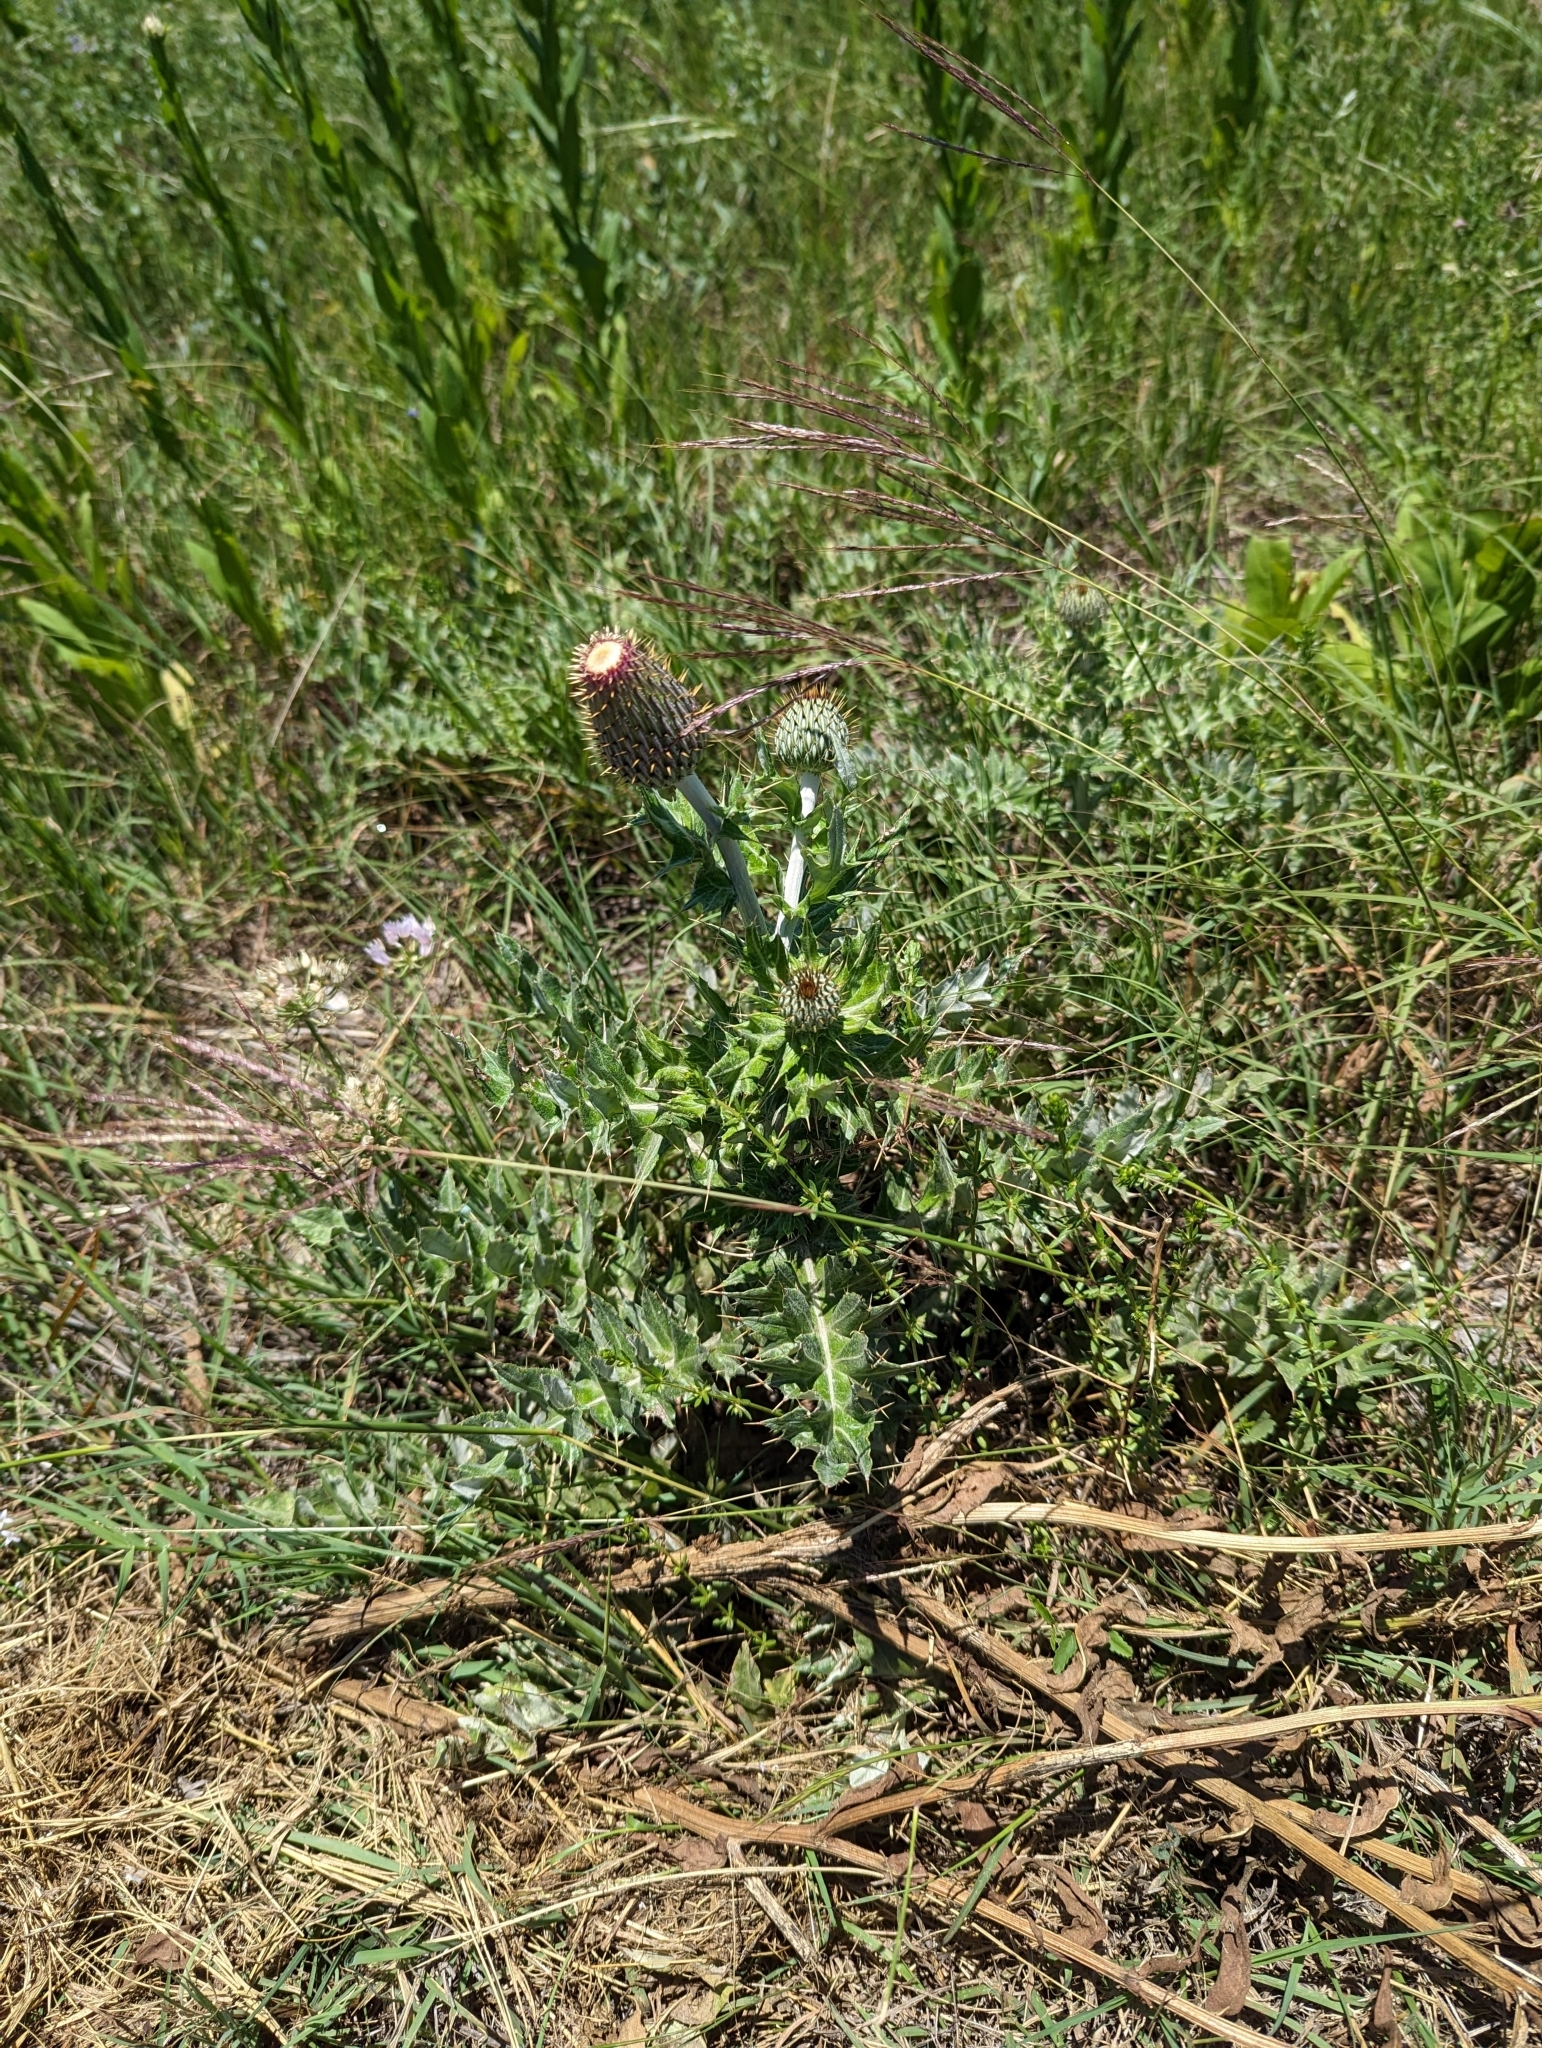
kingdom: Plantae
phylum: Tracheophyta
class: Magnoliopsida
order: Asterales
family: Asteraceae
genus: Cirsium
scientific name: Cirsium undulatum
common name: Pasture thistle
